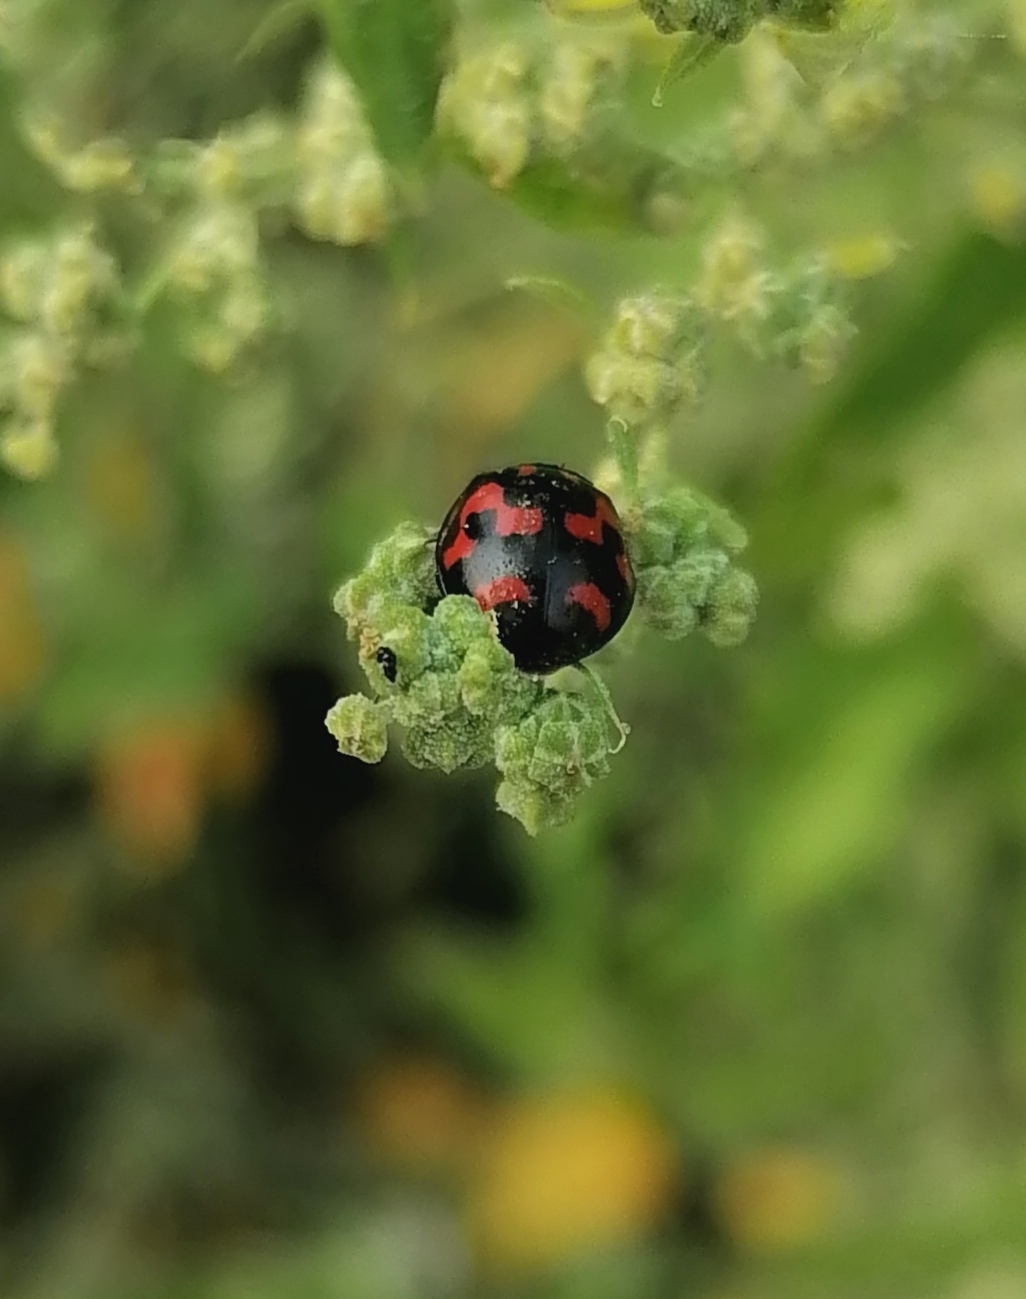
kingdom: Animalia
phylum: Arthropoda
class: Insecta
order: Coleoptera
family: Coccinellidae
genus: Harmonia
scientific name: Harmonia axyridis
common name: Harlequin ladybird
